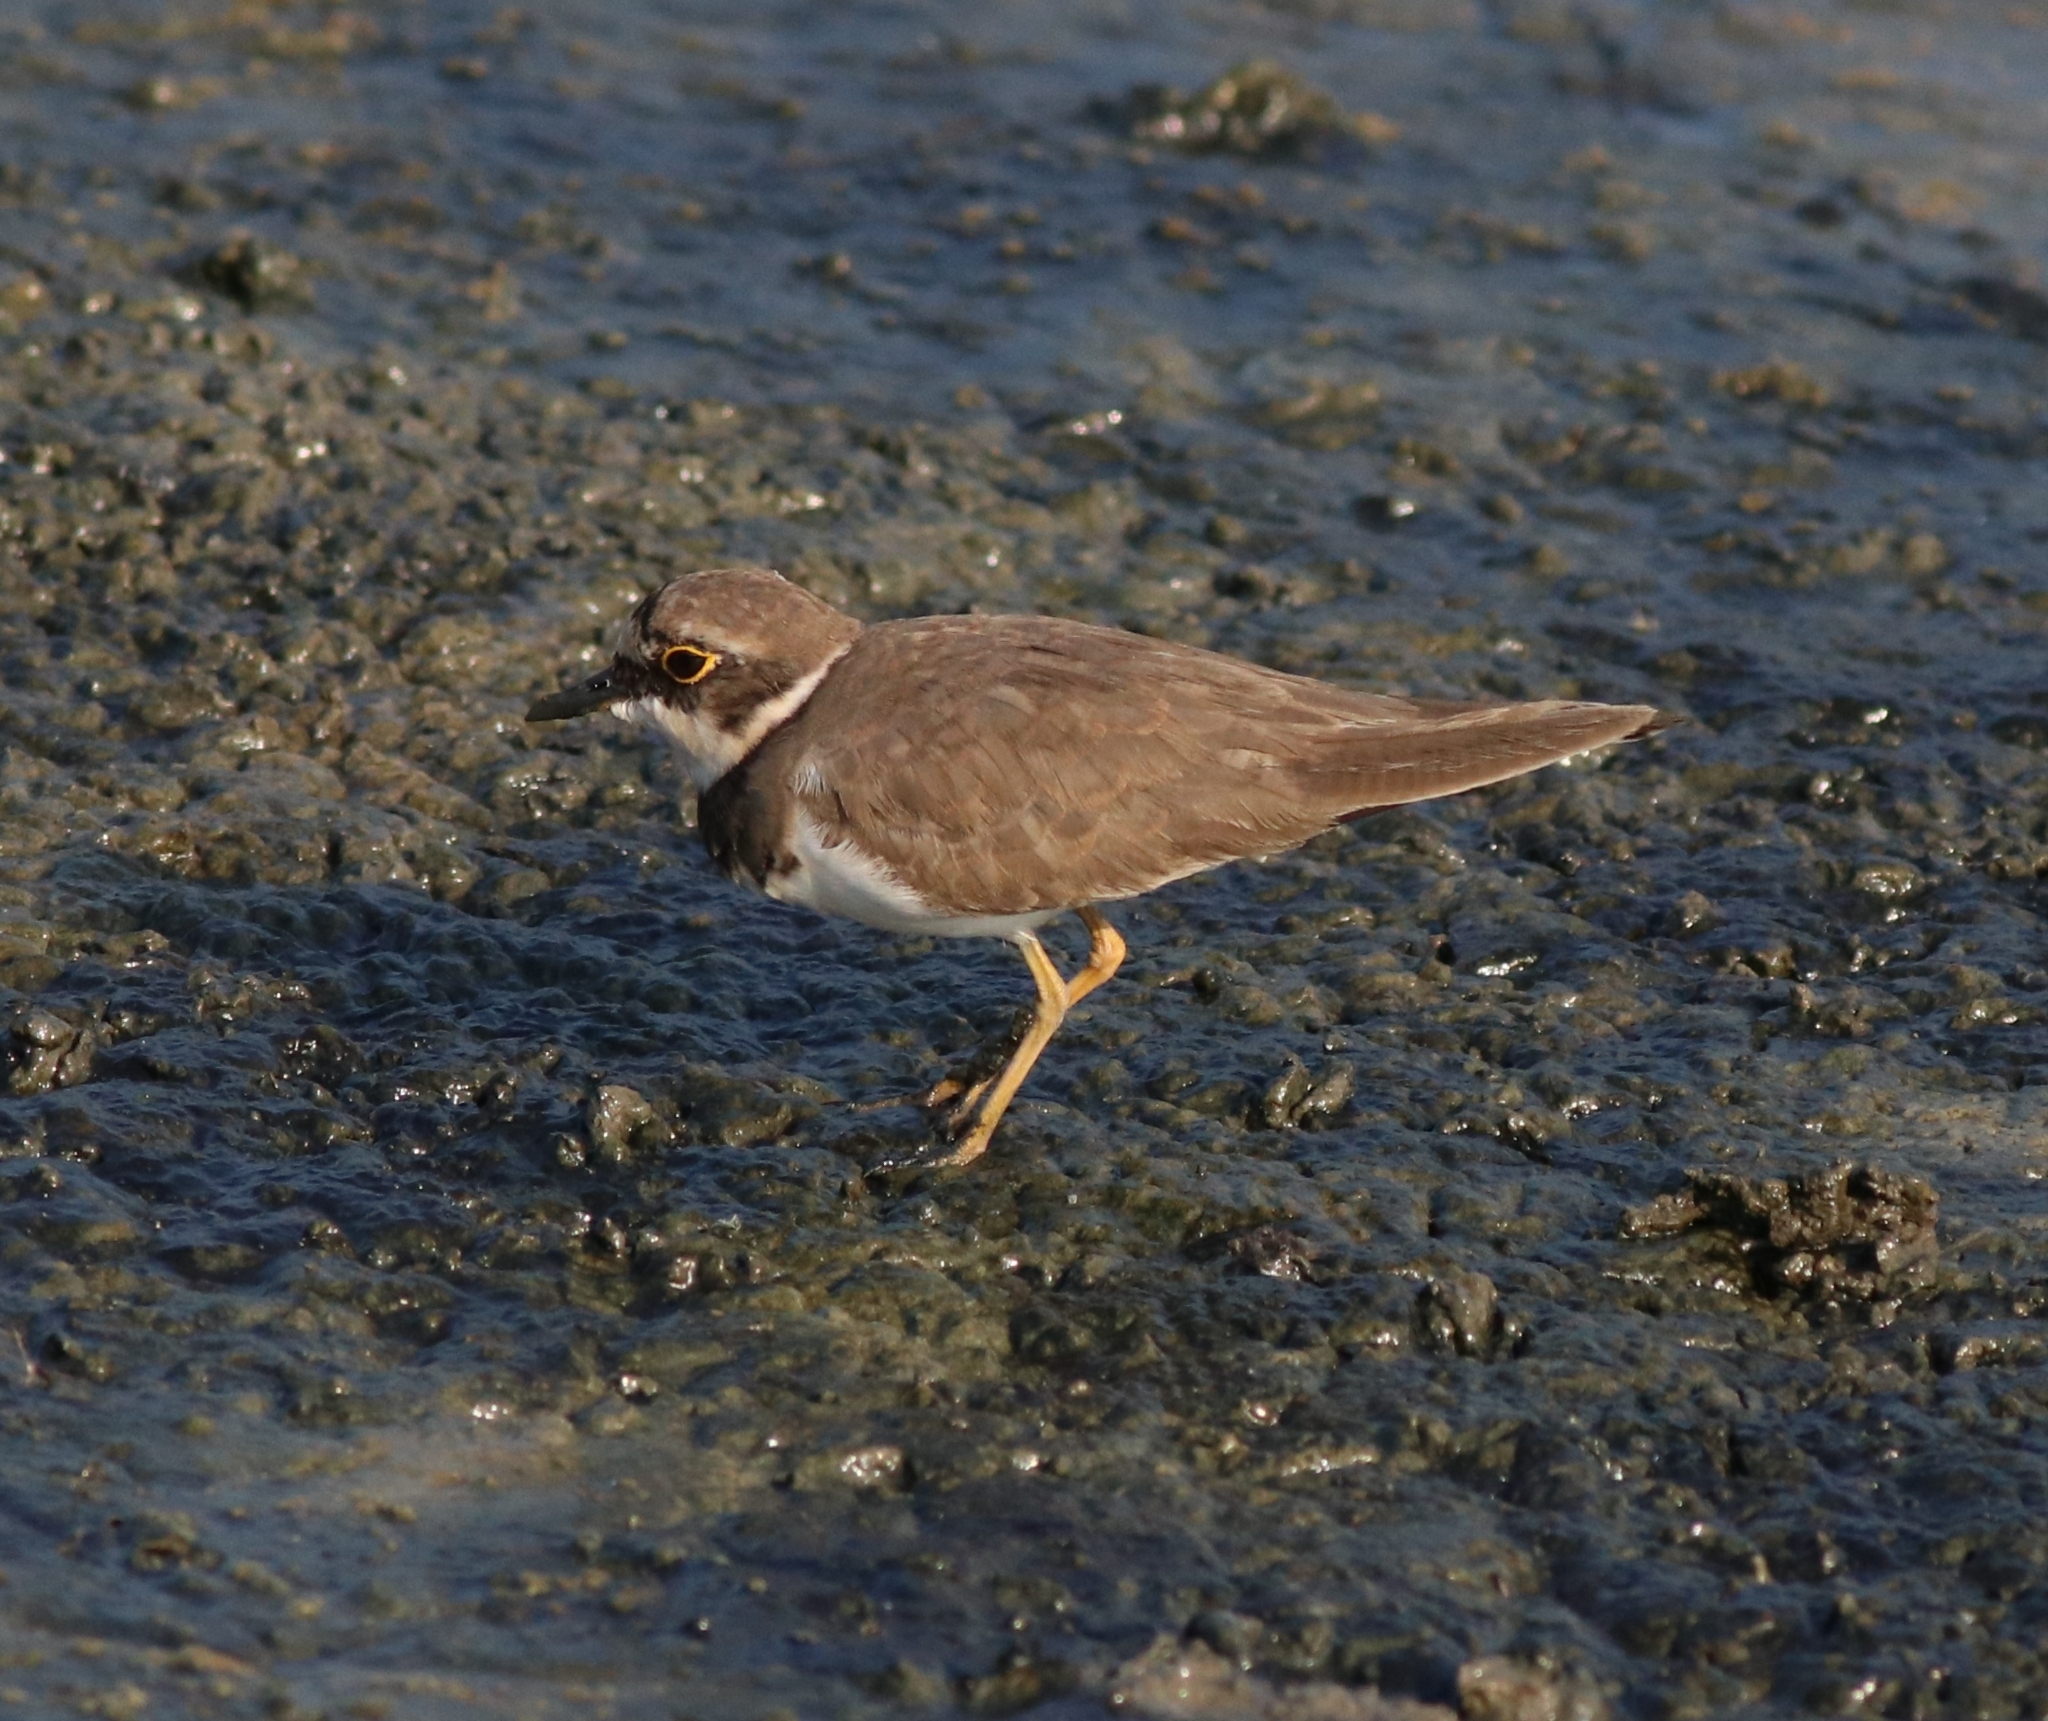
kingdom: Animalia
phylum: Chordata
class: Aves
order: Charadriiformes
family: Charadriidae
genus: Charadrius
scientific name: Charadrius dubius
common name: Little ringed plover
